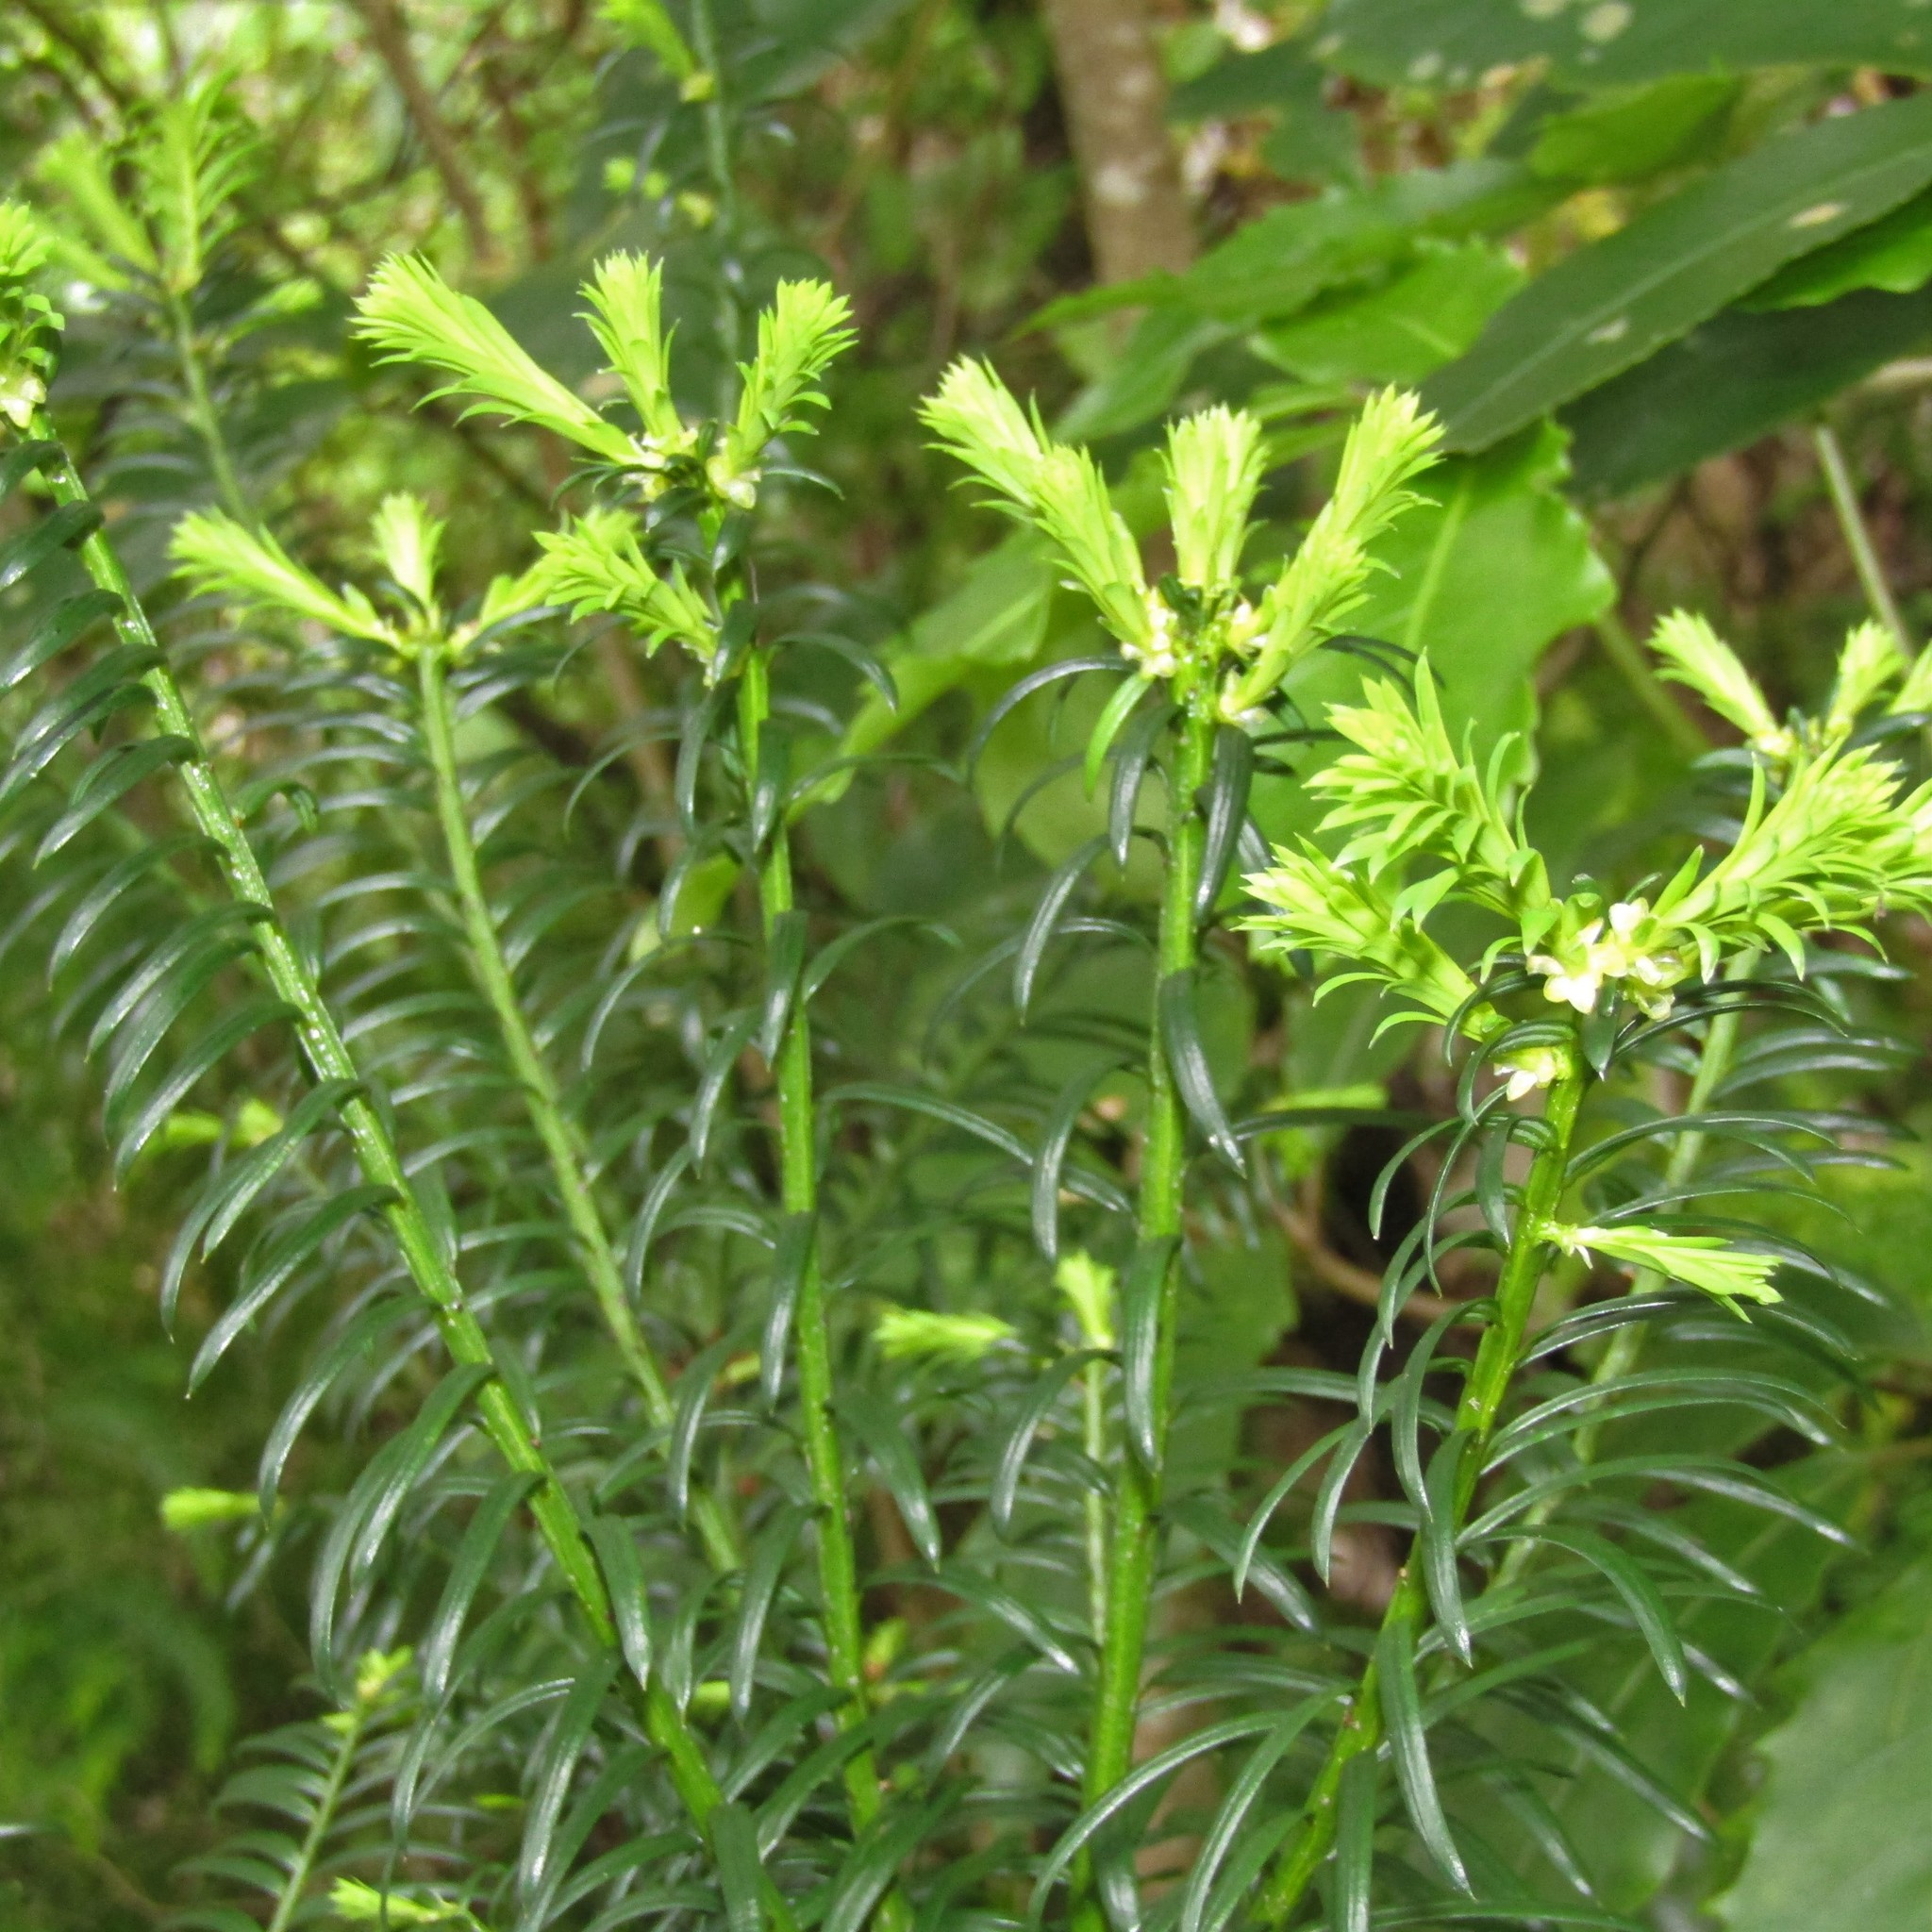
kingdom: Plantae
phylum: Tracheophyta
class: Pinopsida
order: Pinales
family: Taxaceae
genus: Taxus
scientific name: Taxus baccata
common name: Yew
